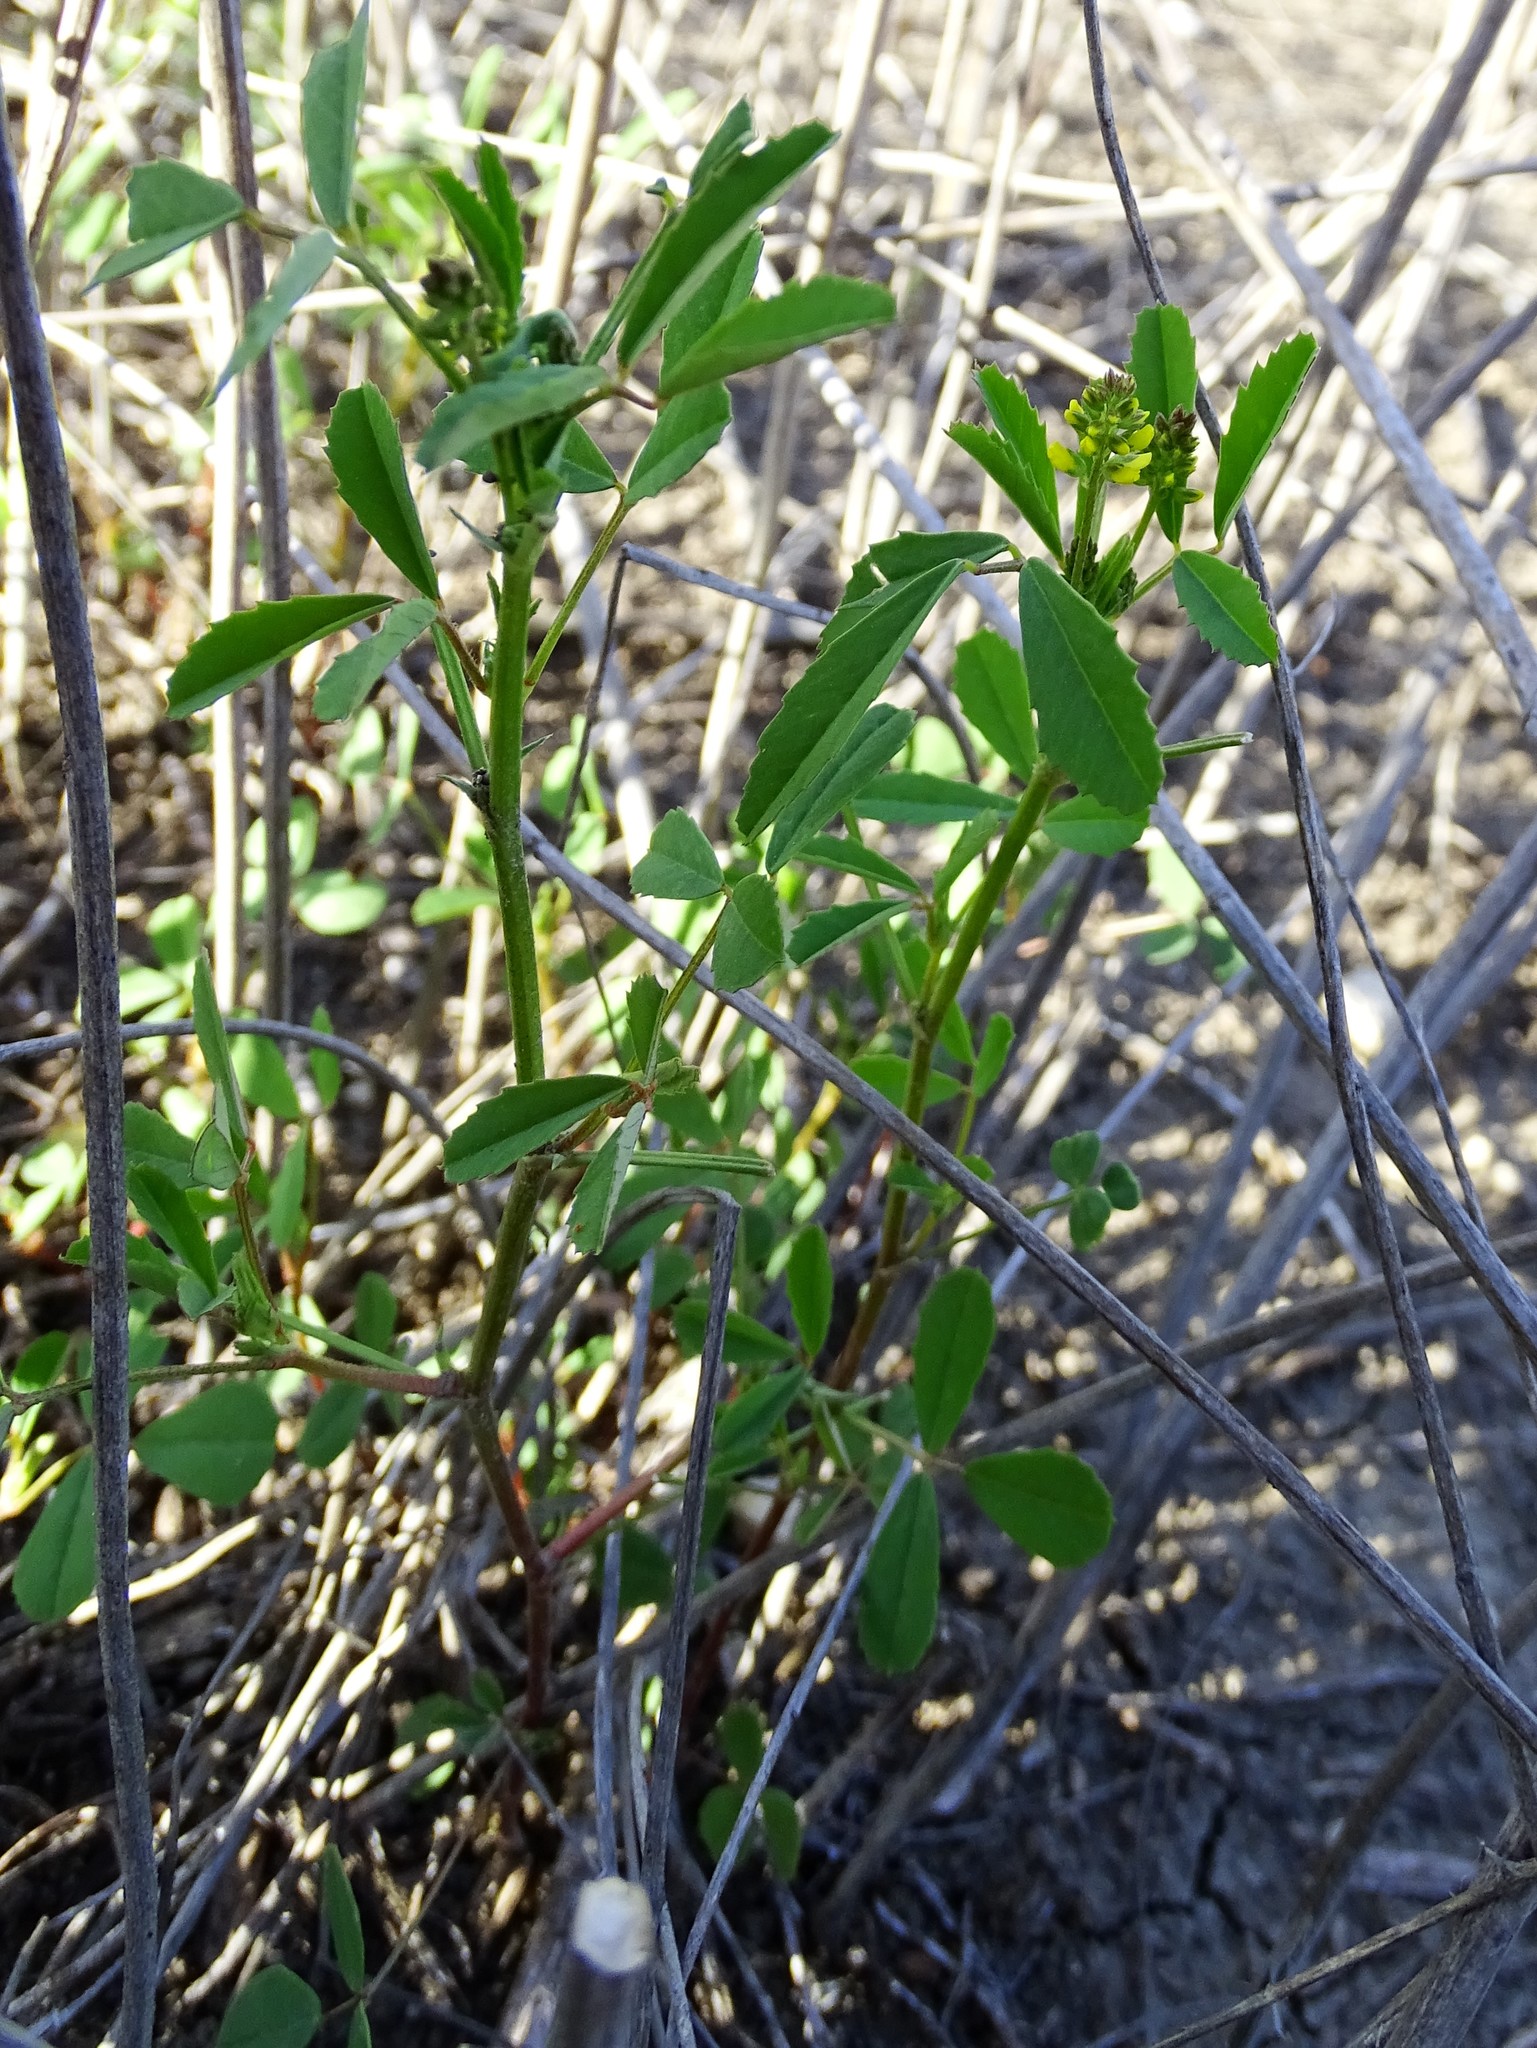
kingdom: Plantae
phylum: Tracheophyta
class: Magnoliopsida
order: Fabales
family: Fabaceae
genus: Melilotus
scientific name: Melilotus indicus
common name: Small melilot
